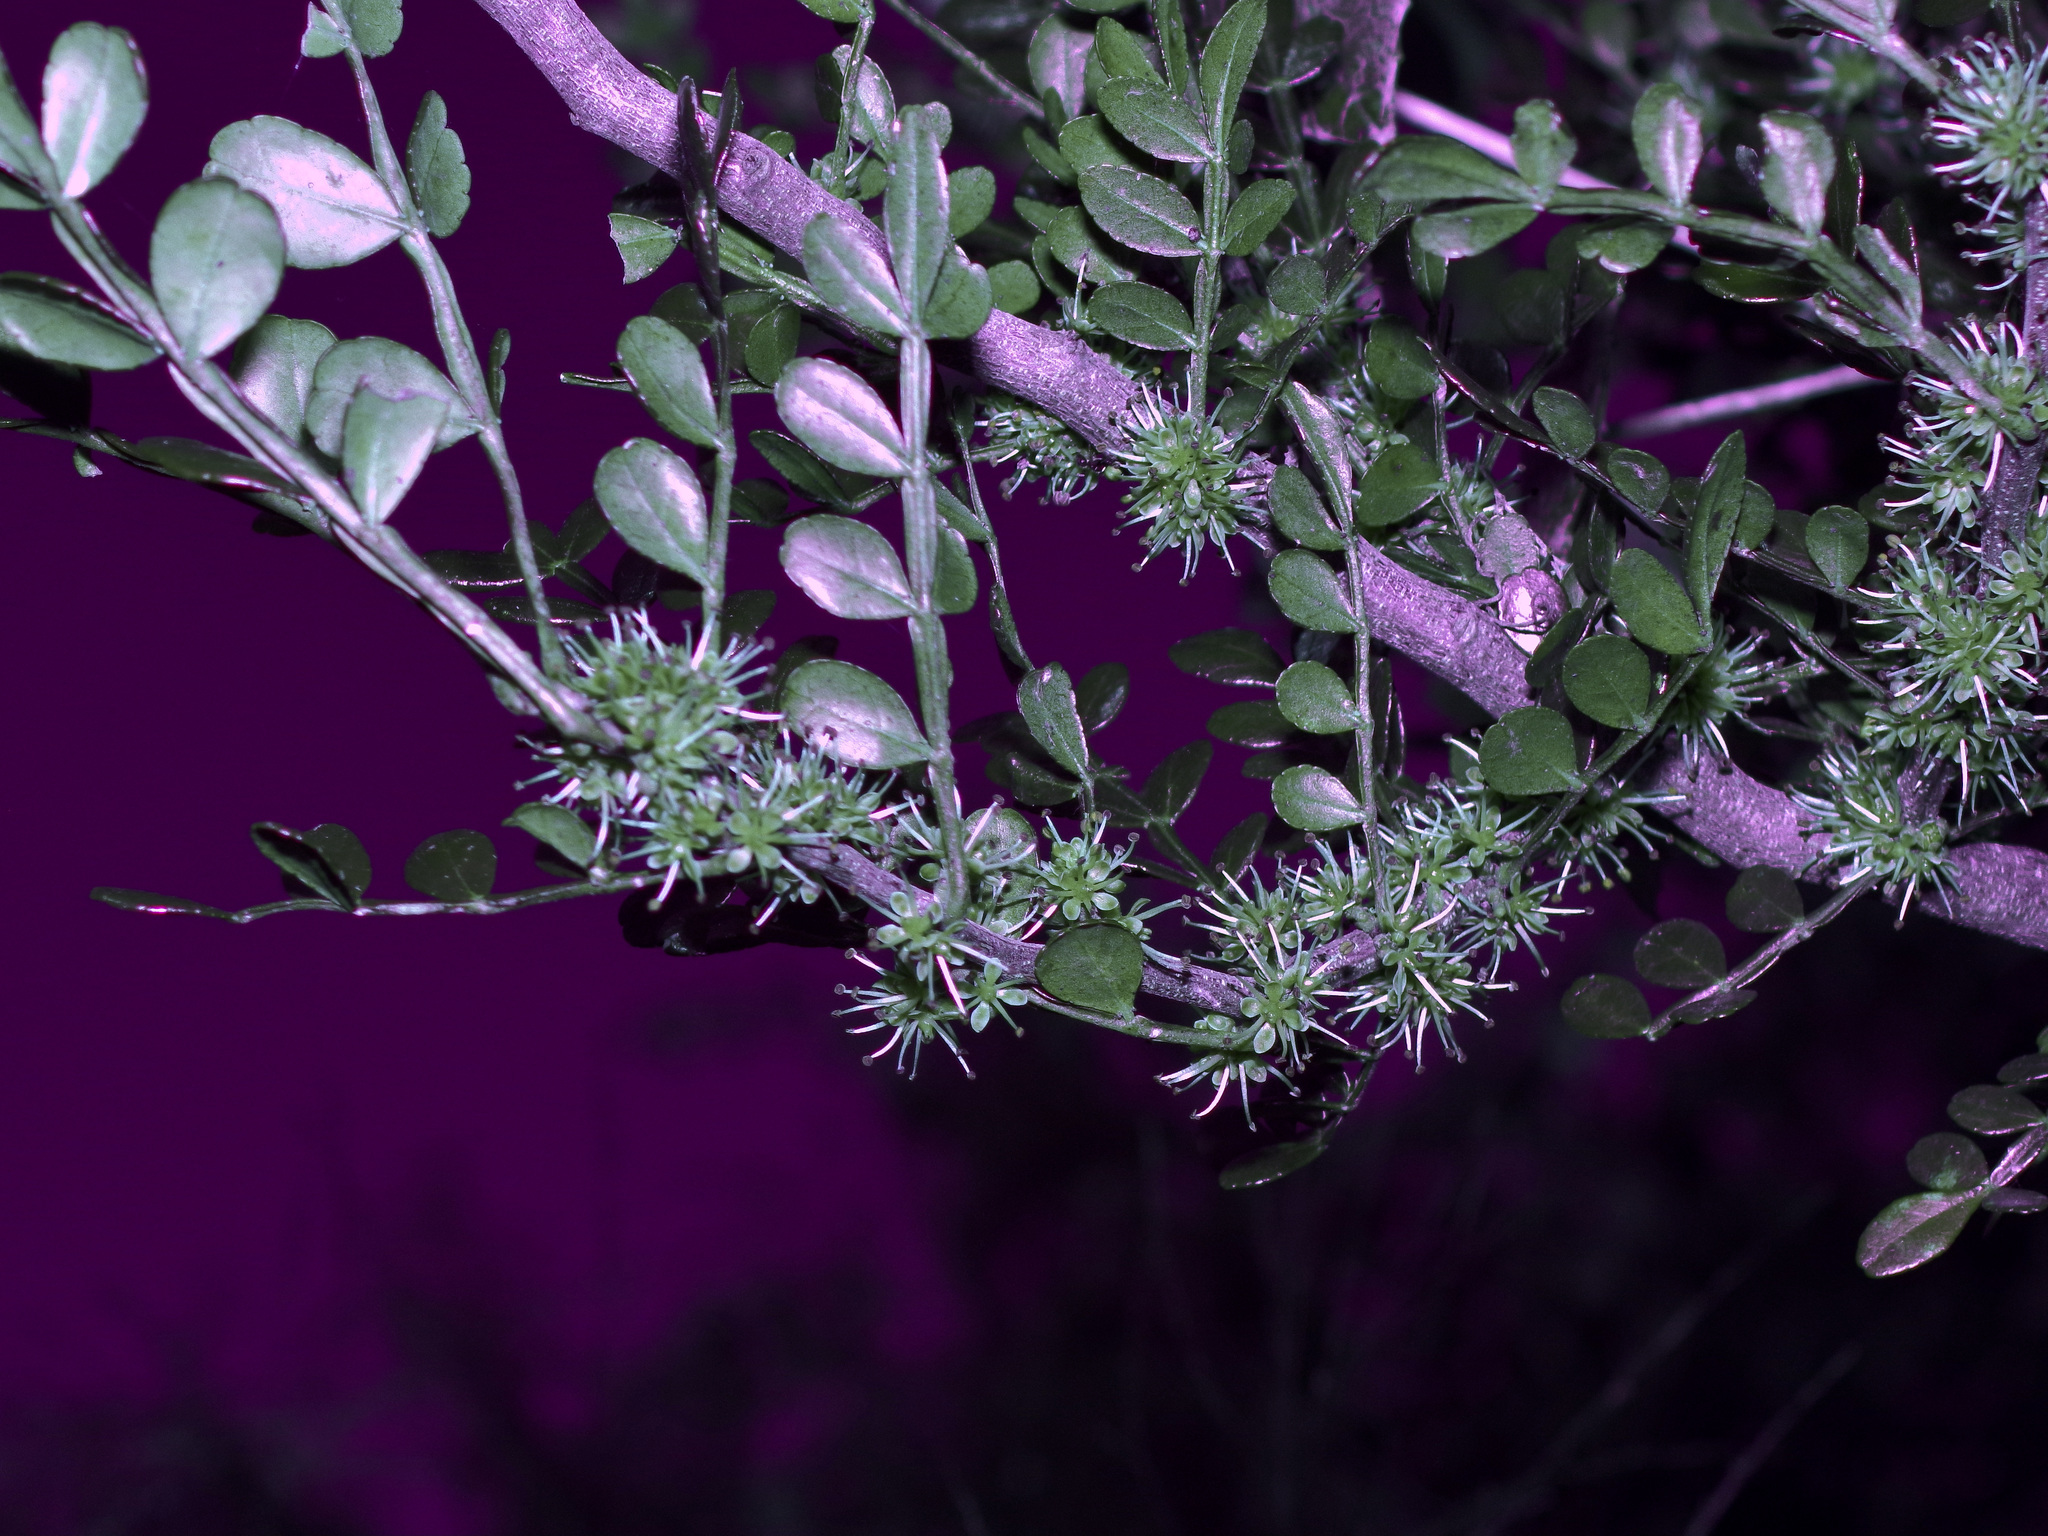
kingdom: Plantae
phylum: Tracheophyta
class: Magnoliopsida
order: Sapindales
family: Rutaceae
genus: Zanthoxylum
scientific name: Zanthoxylum fagara
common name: Lime prickly-ash
